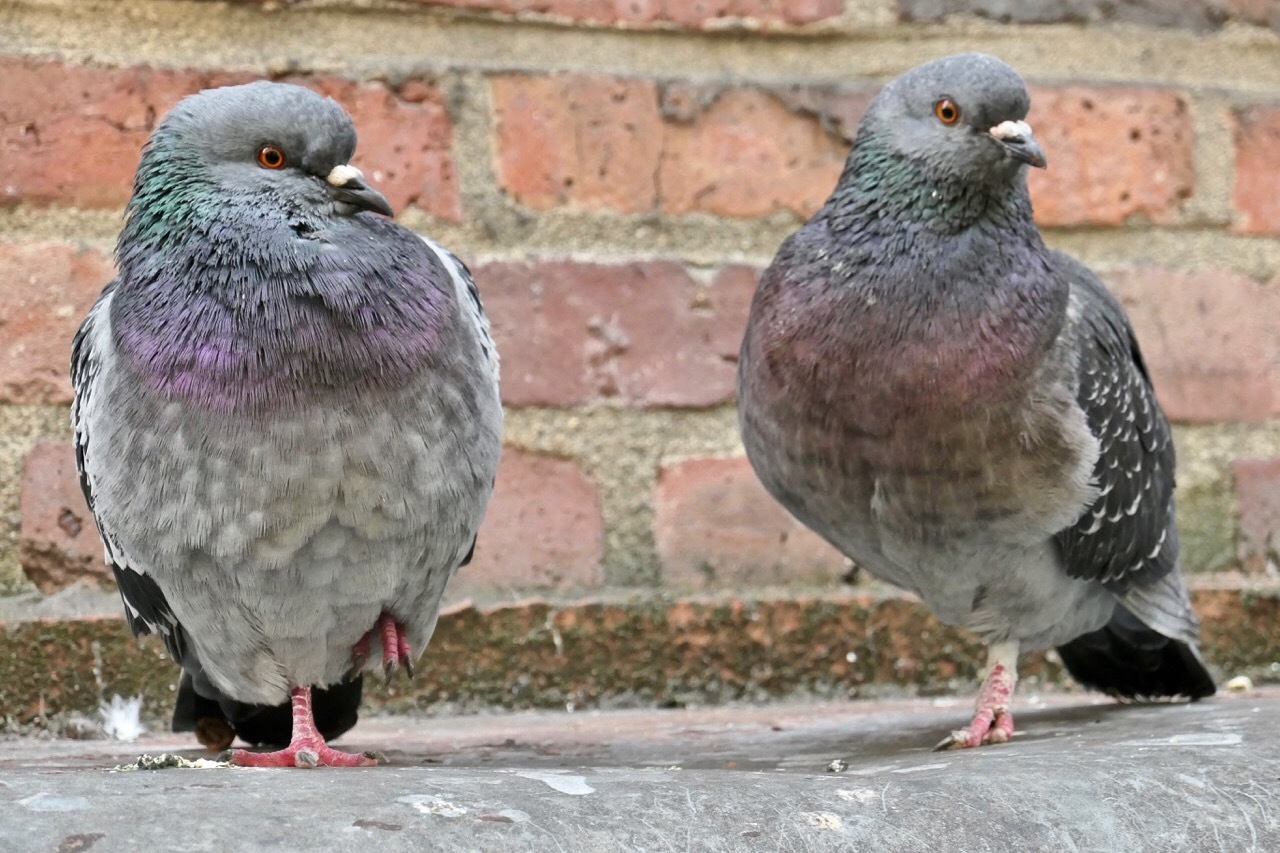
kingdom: Animalia
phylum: Chordata
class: Aves
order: Columbiformes
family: Columbidae
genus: Columba
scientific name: Columba livia
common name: Rock pigeon
